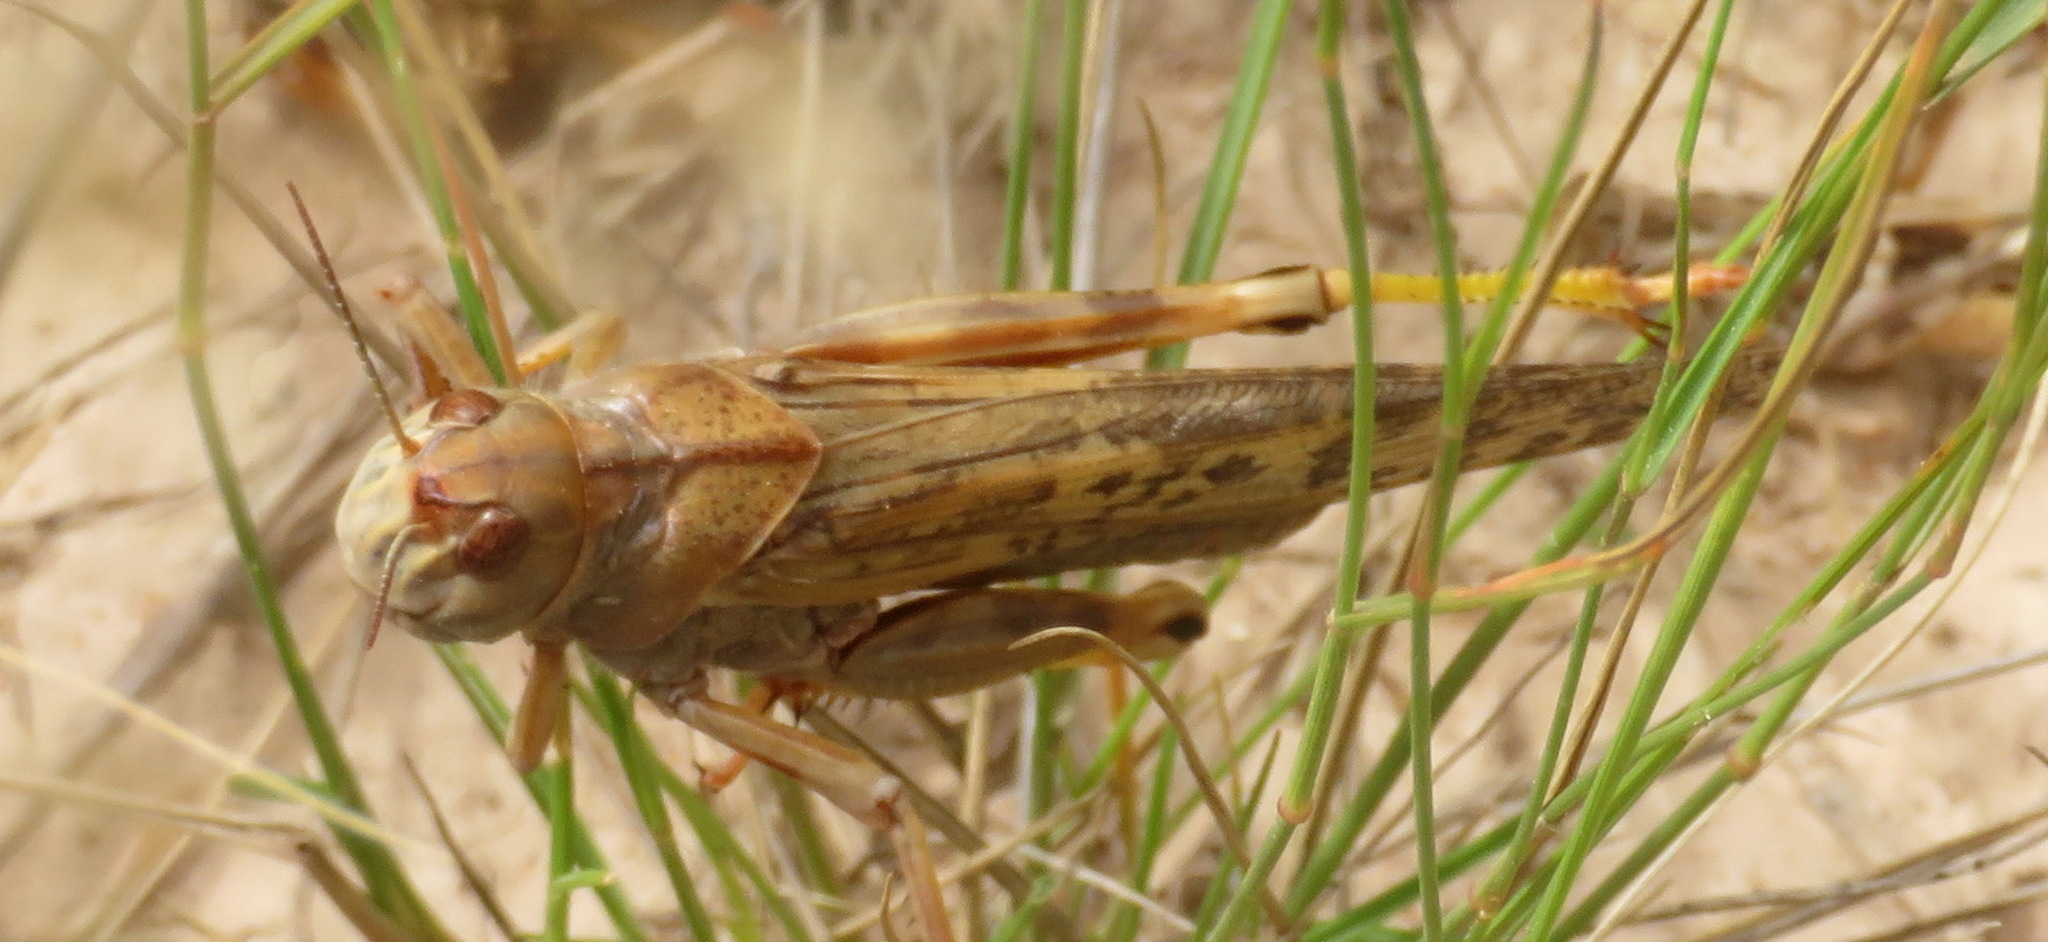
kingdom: Animalia
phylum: Arthropoda
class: Insecta
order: Orthoptera
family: Acrididae
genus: Locustana
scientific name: Locustana pardalina
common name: Brown locust
